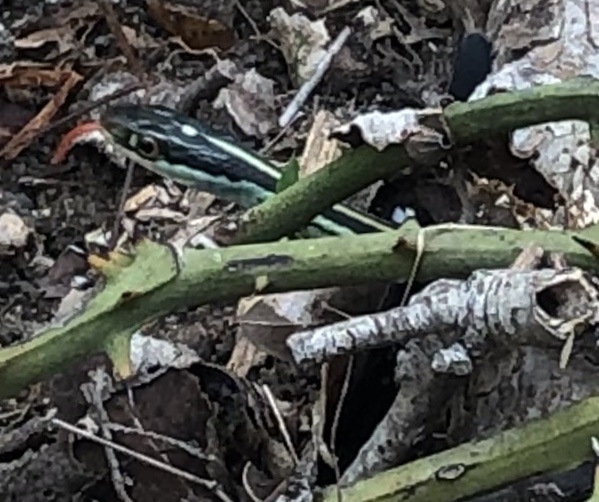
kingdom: Animalia
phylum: Chordata
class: Squamata
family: Colubridae
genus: Thamnophis
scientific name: Thamnophis proximus
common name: Western ribbon snake
